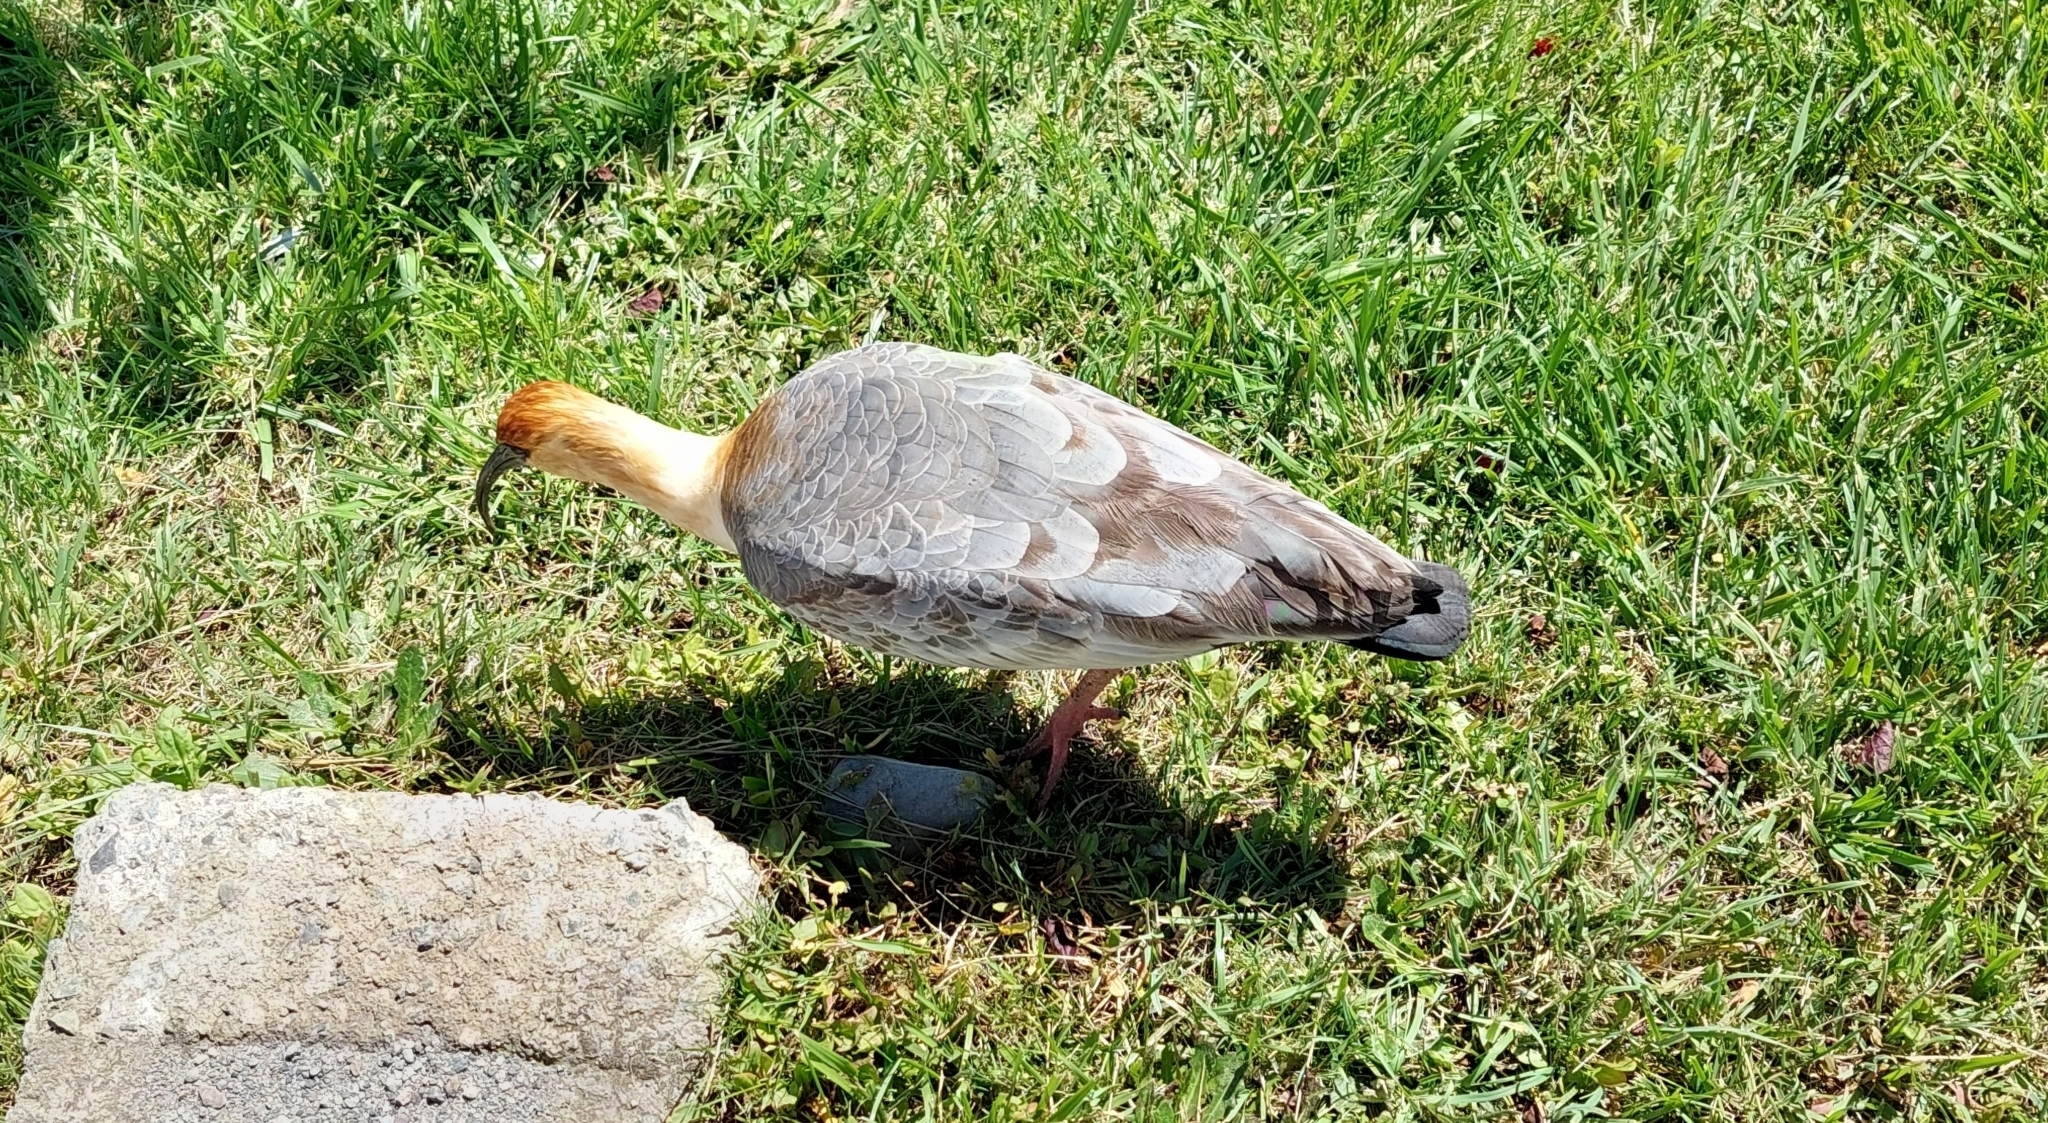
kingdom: Animalia
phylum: Chordata
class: Aves
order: Pelecaniformes
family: Threskiornithidae
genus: Theristicus
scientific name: Theristicus melanopis
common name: Black-faced ibis
